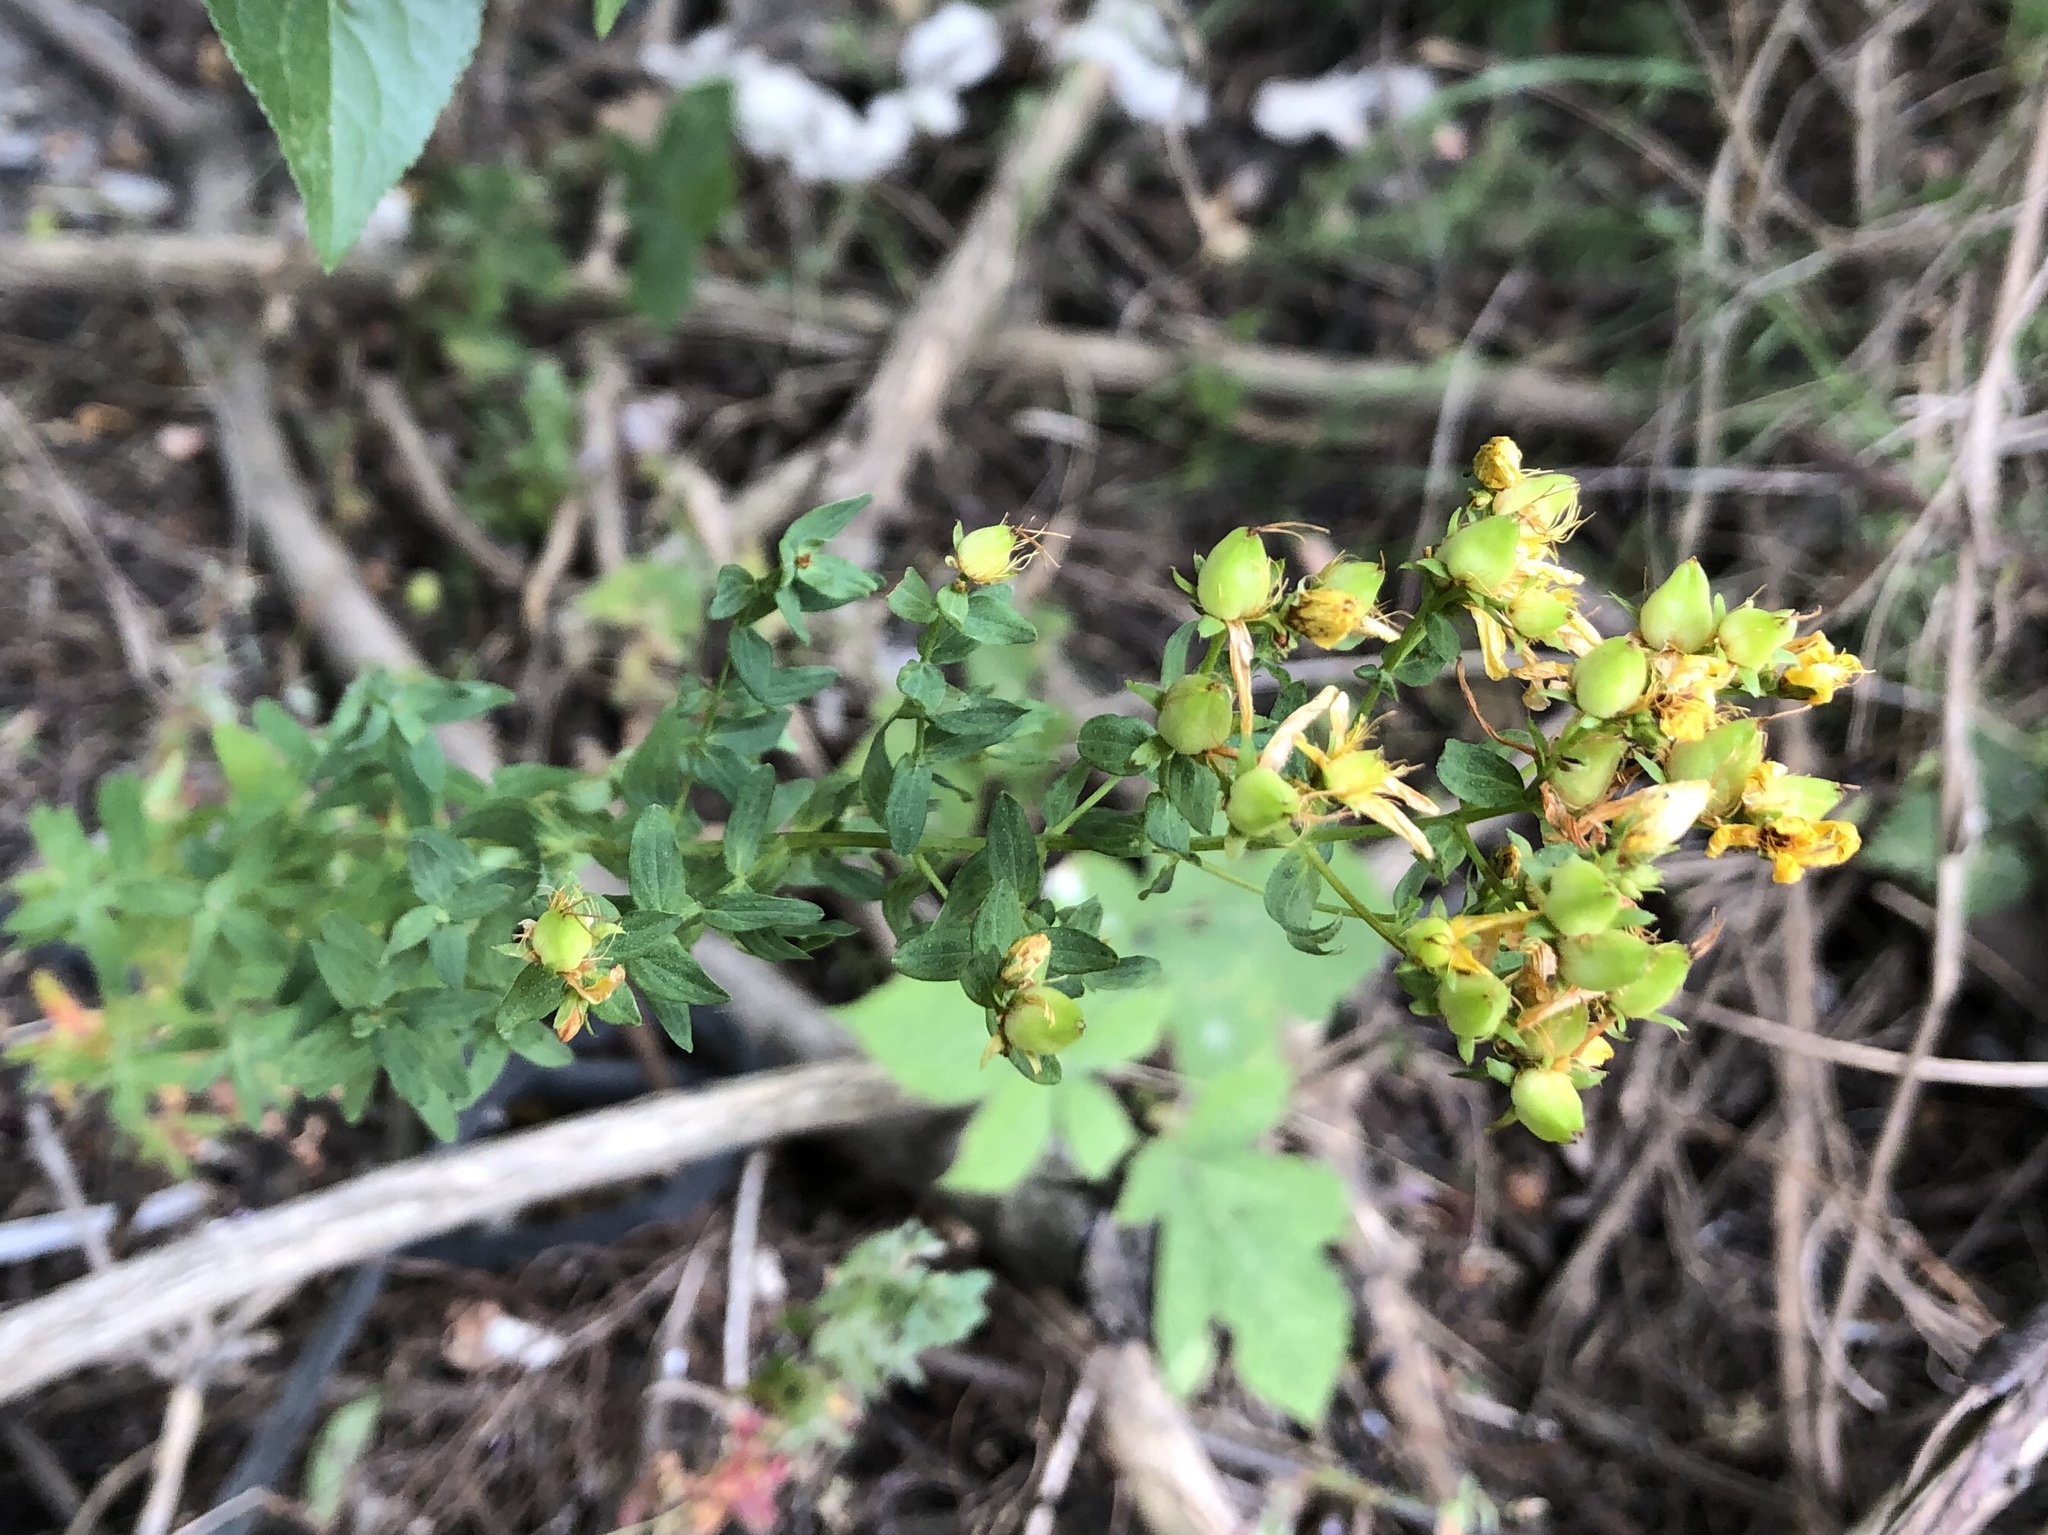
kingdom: Plantae
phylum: Tracheophyta
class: Magnoliopsida
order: Malpighiales
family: Hypericaceae
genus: Hypericum
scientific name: Hypericum perforatum
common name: Common st. johnswort
